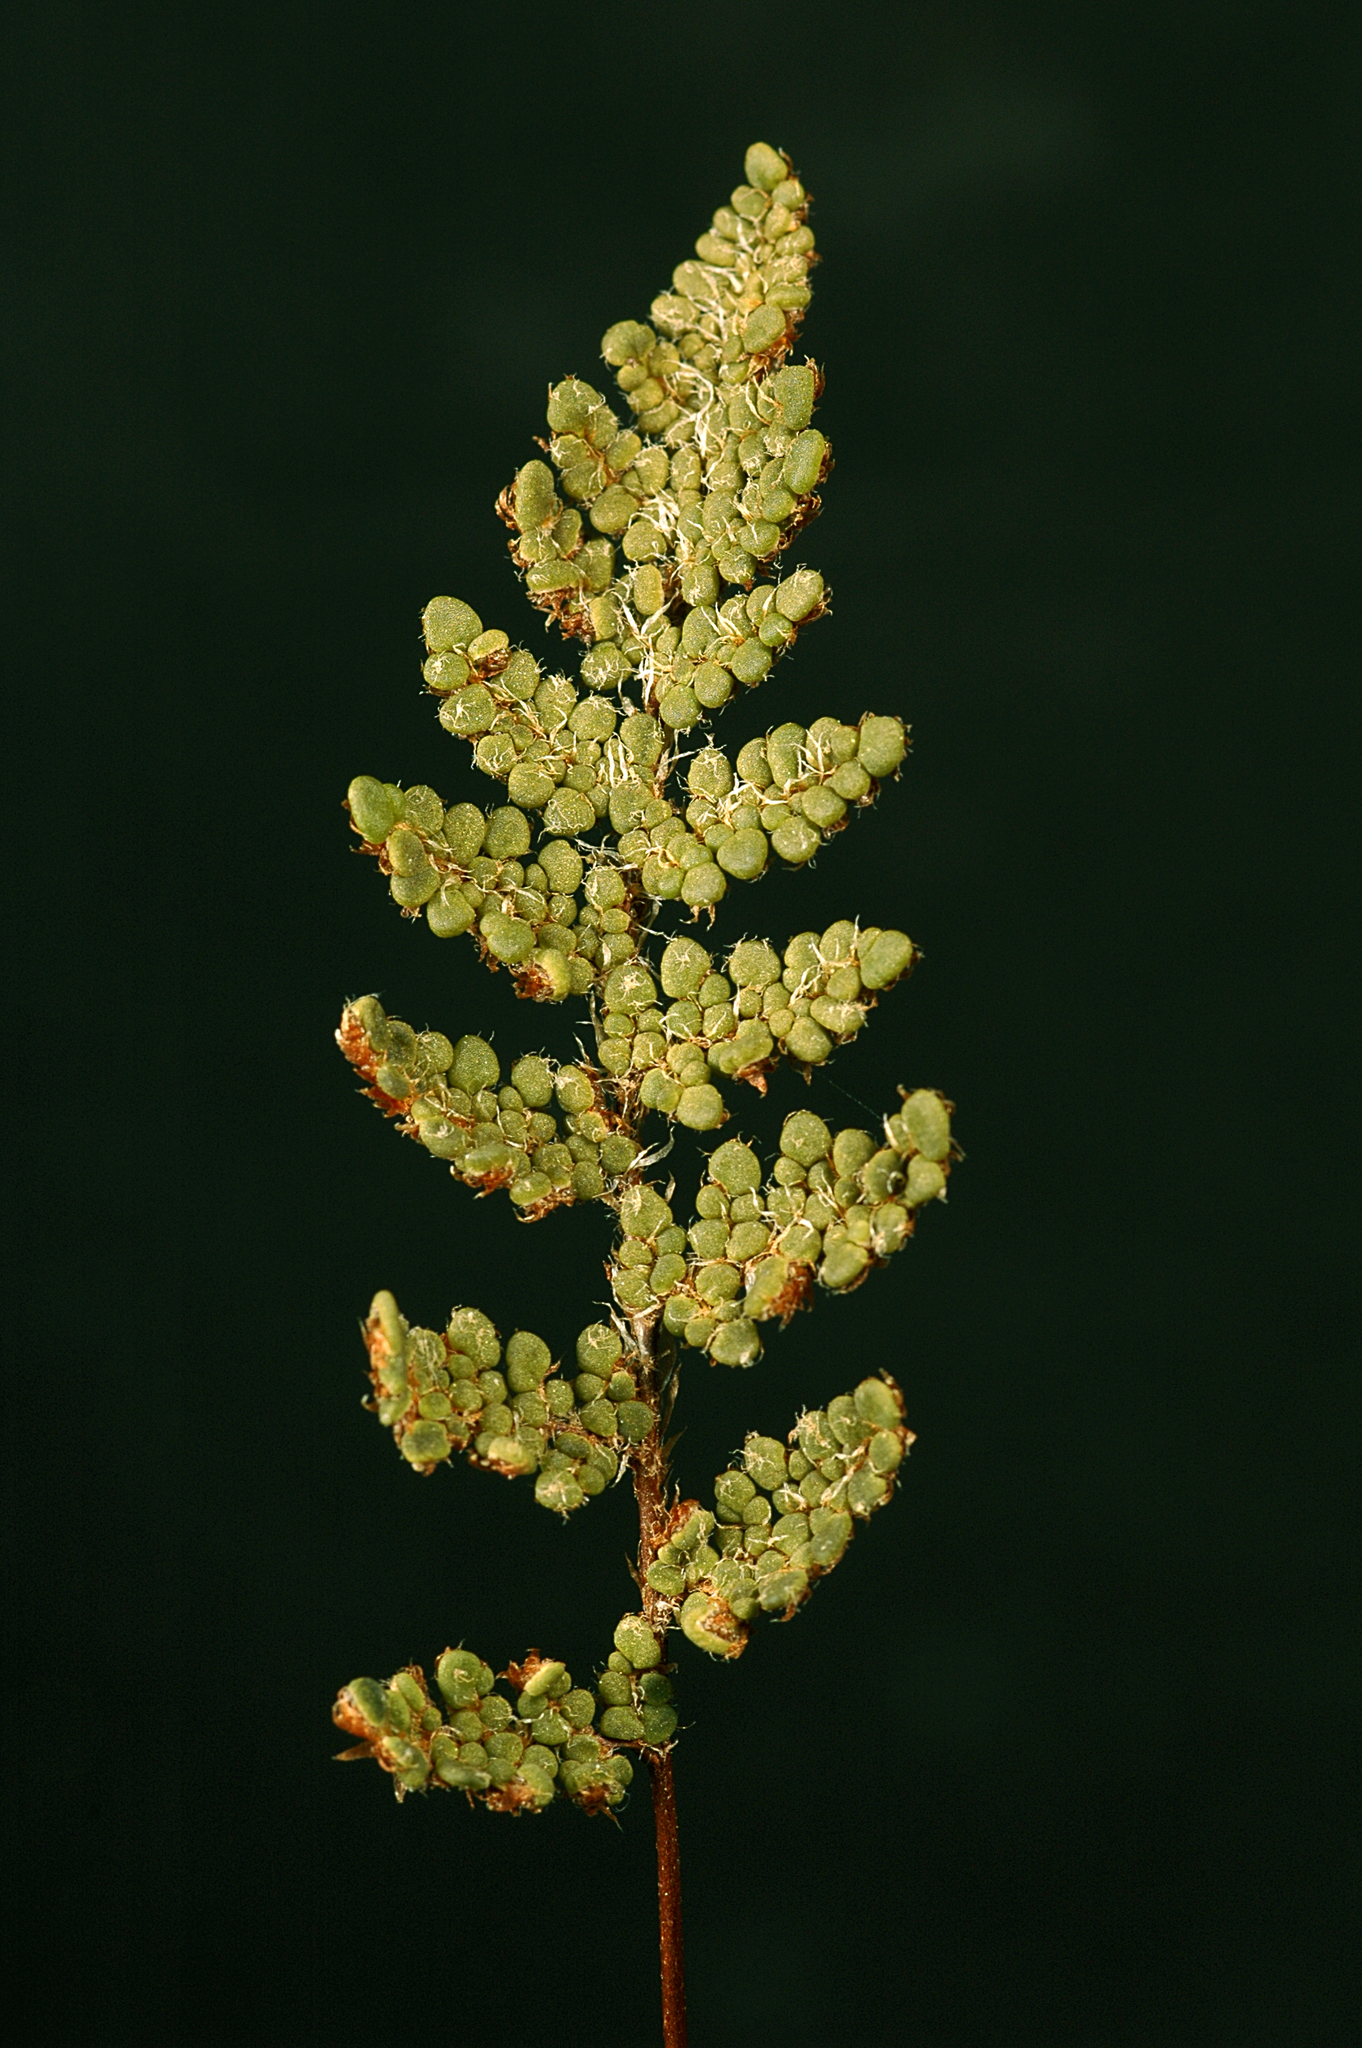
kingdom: Plantae
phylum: Tracheophyta
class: Polypodiopsida
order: Polypodiales
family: Pteridaceae
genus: Myriopteris
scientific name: Myriopteris intertexta
